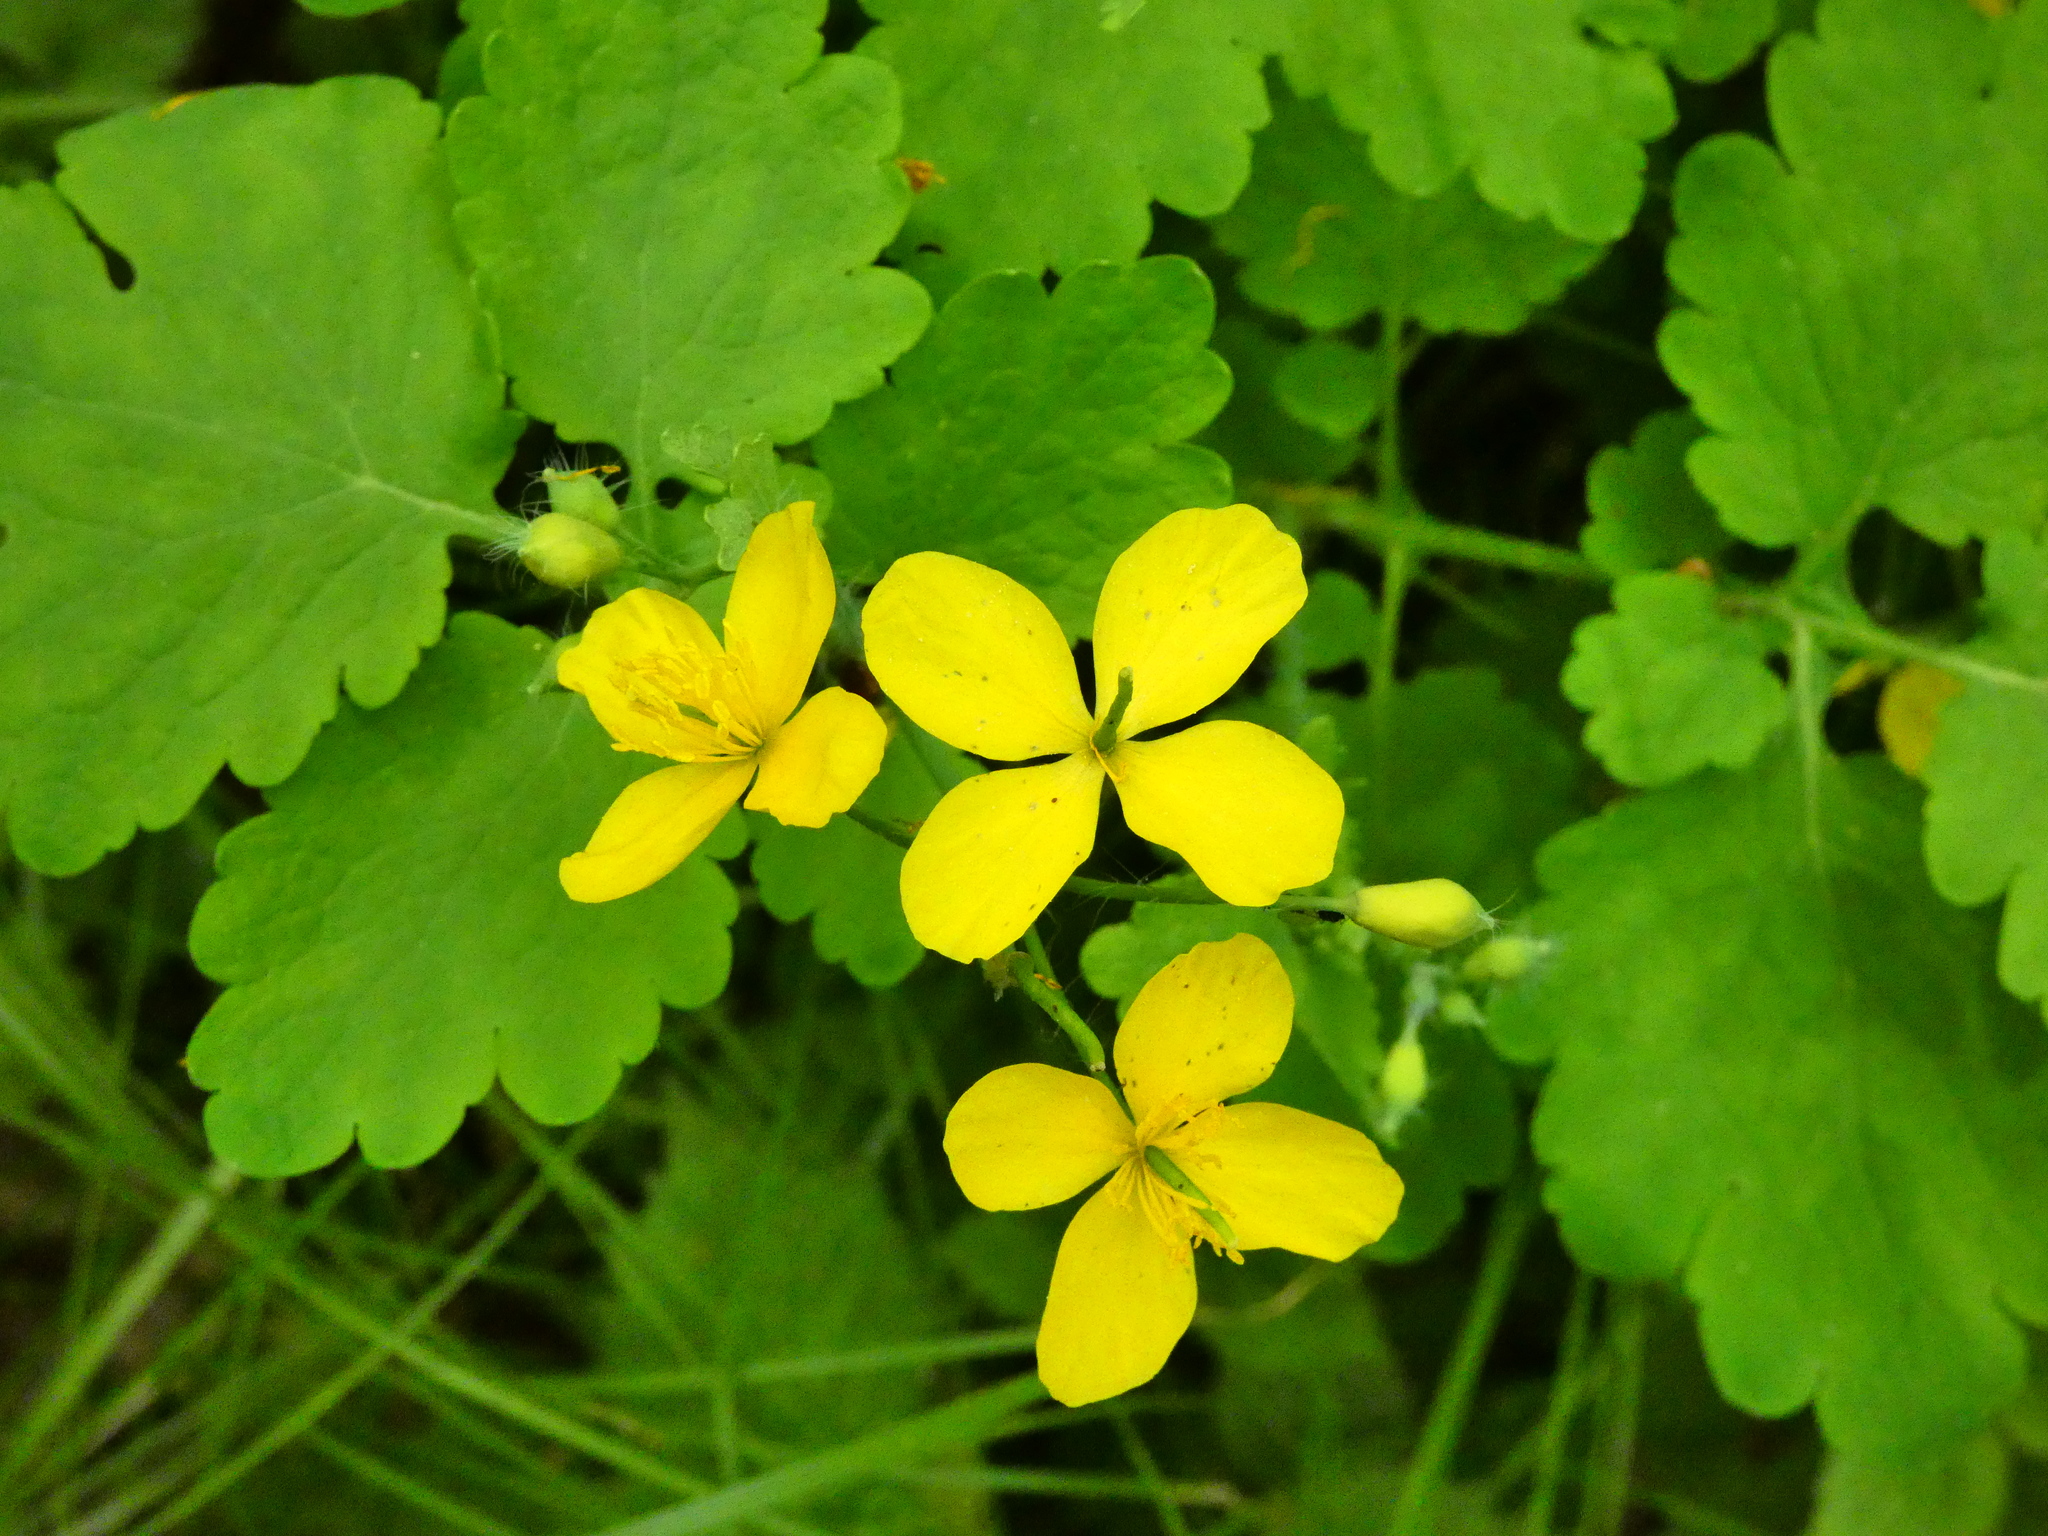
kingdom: Plantae
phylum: Tracheophyta
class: Magnoliopsida
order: Ranunculales
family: Papaveraceae
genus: Chelidonium
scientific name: Chelidonium majus
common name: Greater celandine
